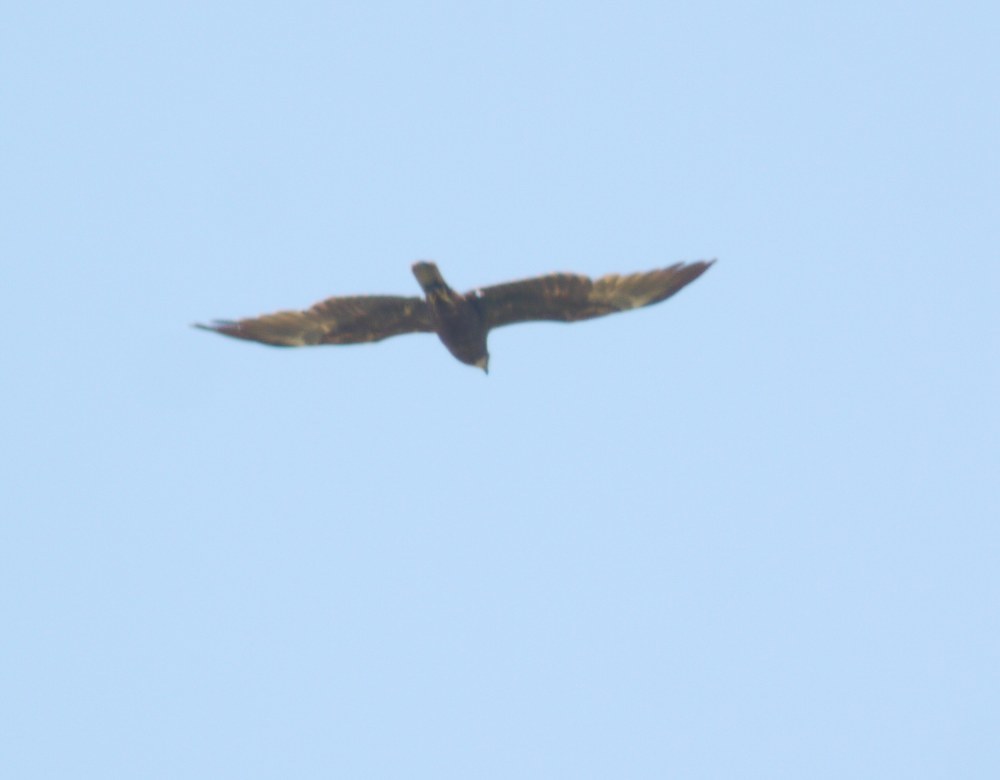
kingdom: Animalia
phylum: Chordata
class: Aves
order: Accipitriformes
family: Accipitridae
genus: Circus
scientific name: Circus aeruginosus
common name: Western marsh harrier
